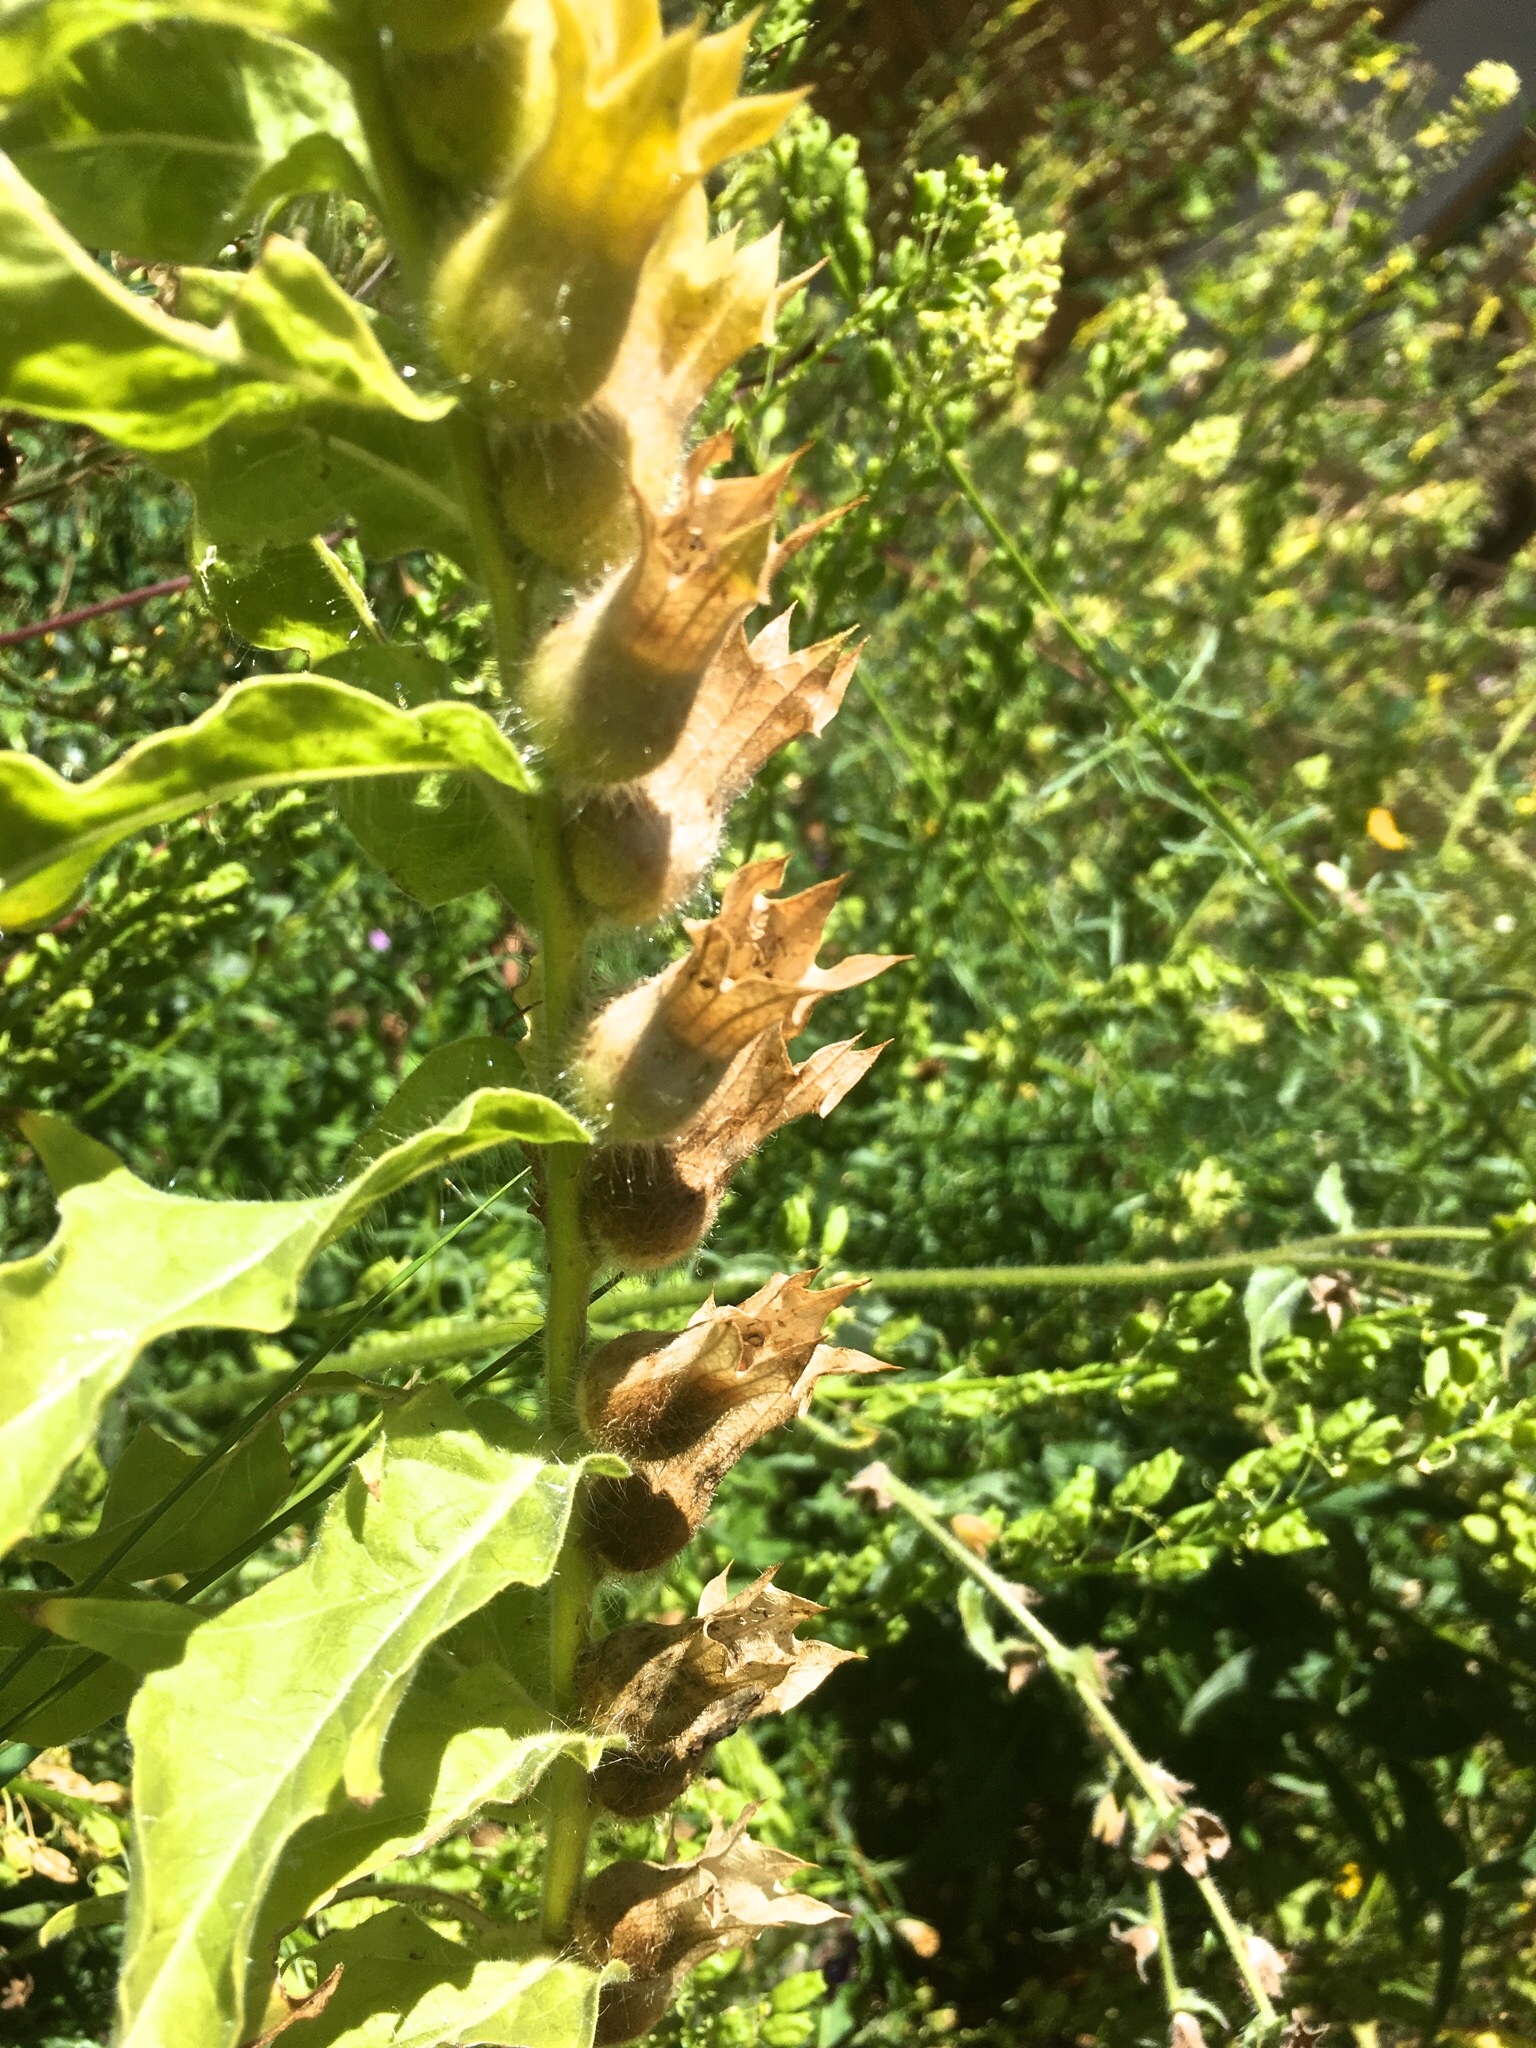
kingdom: Plantae
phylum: Tracheophyta
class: Magnoliopsida
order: Solanales
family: Solanaceae
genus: Hyoscyamus
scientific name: Hyoscyamus niger
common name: Henbane
